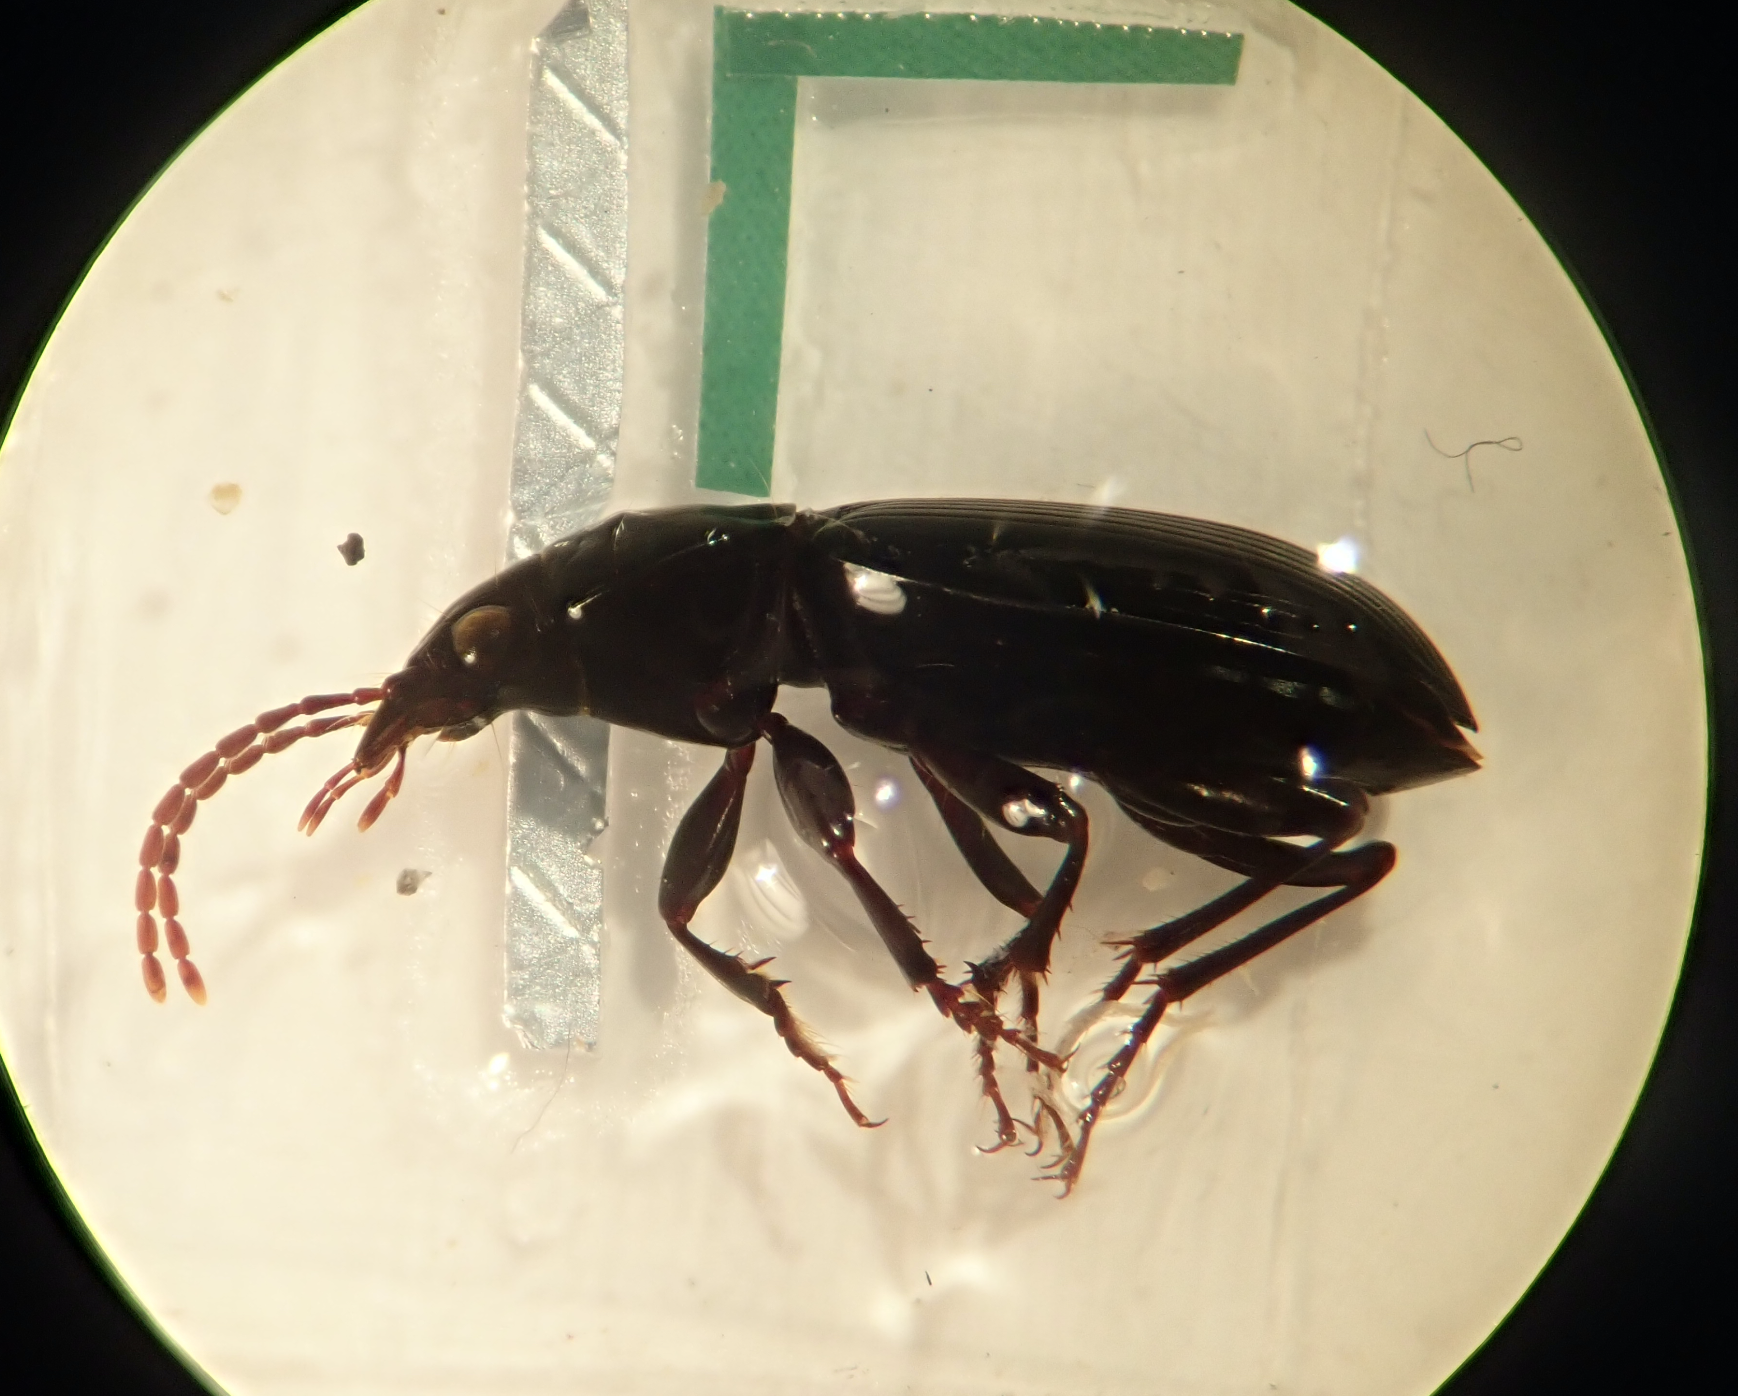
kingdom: Animalia
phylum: Arthropoda
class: Insecta
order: Coleoptera
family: Carabidae
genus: Rhytisternus
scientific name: Rhytisternus miser
